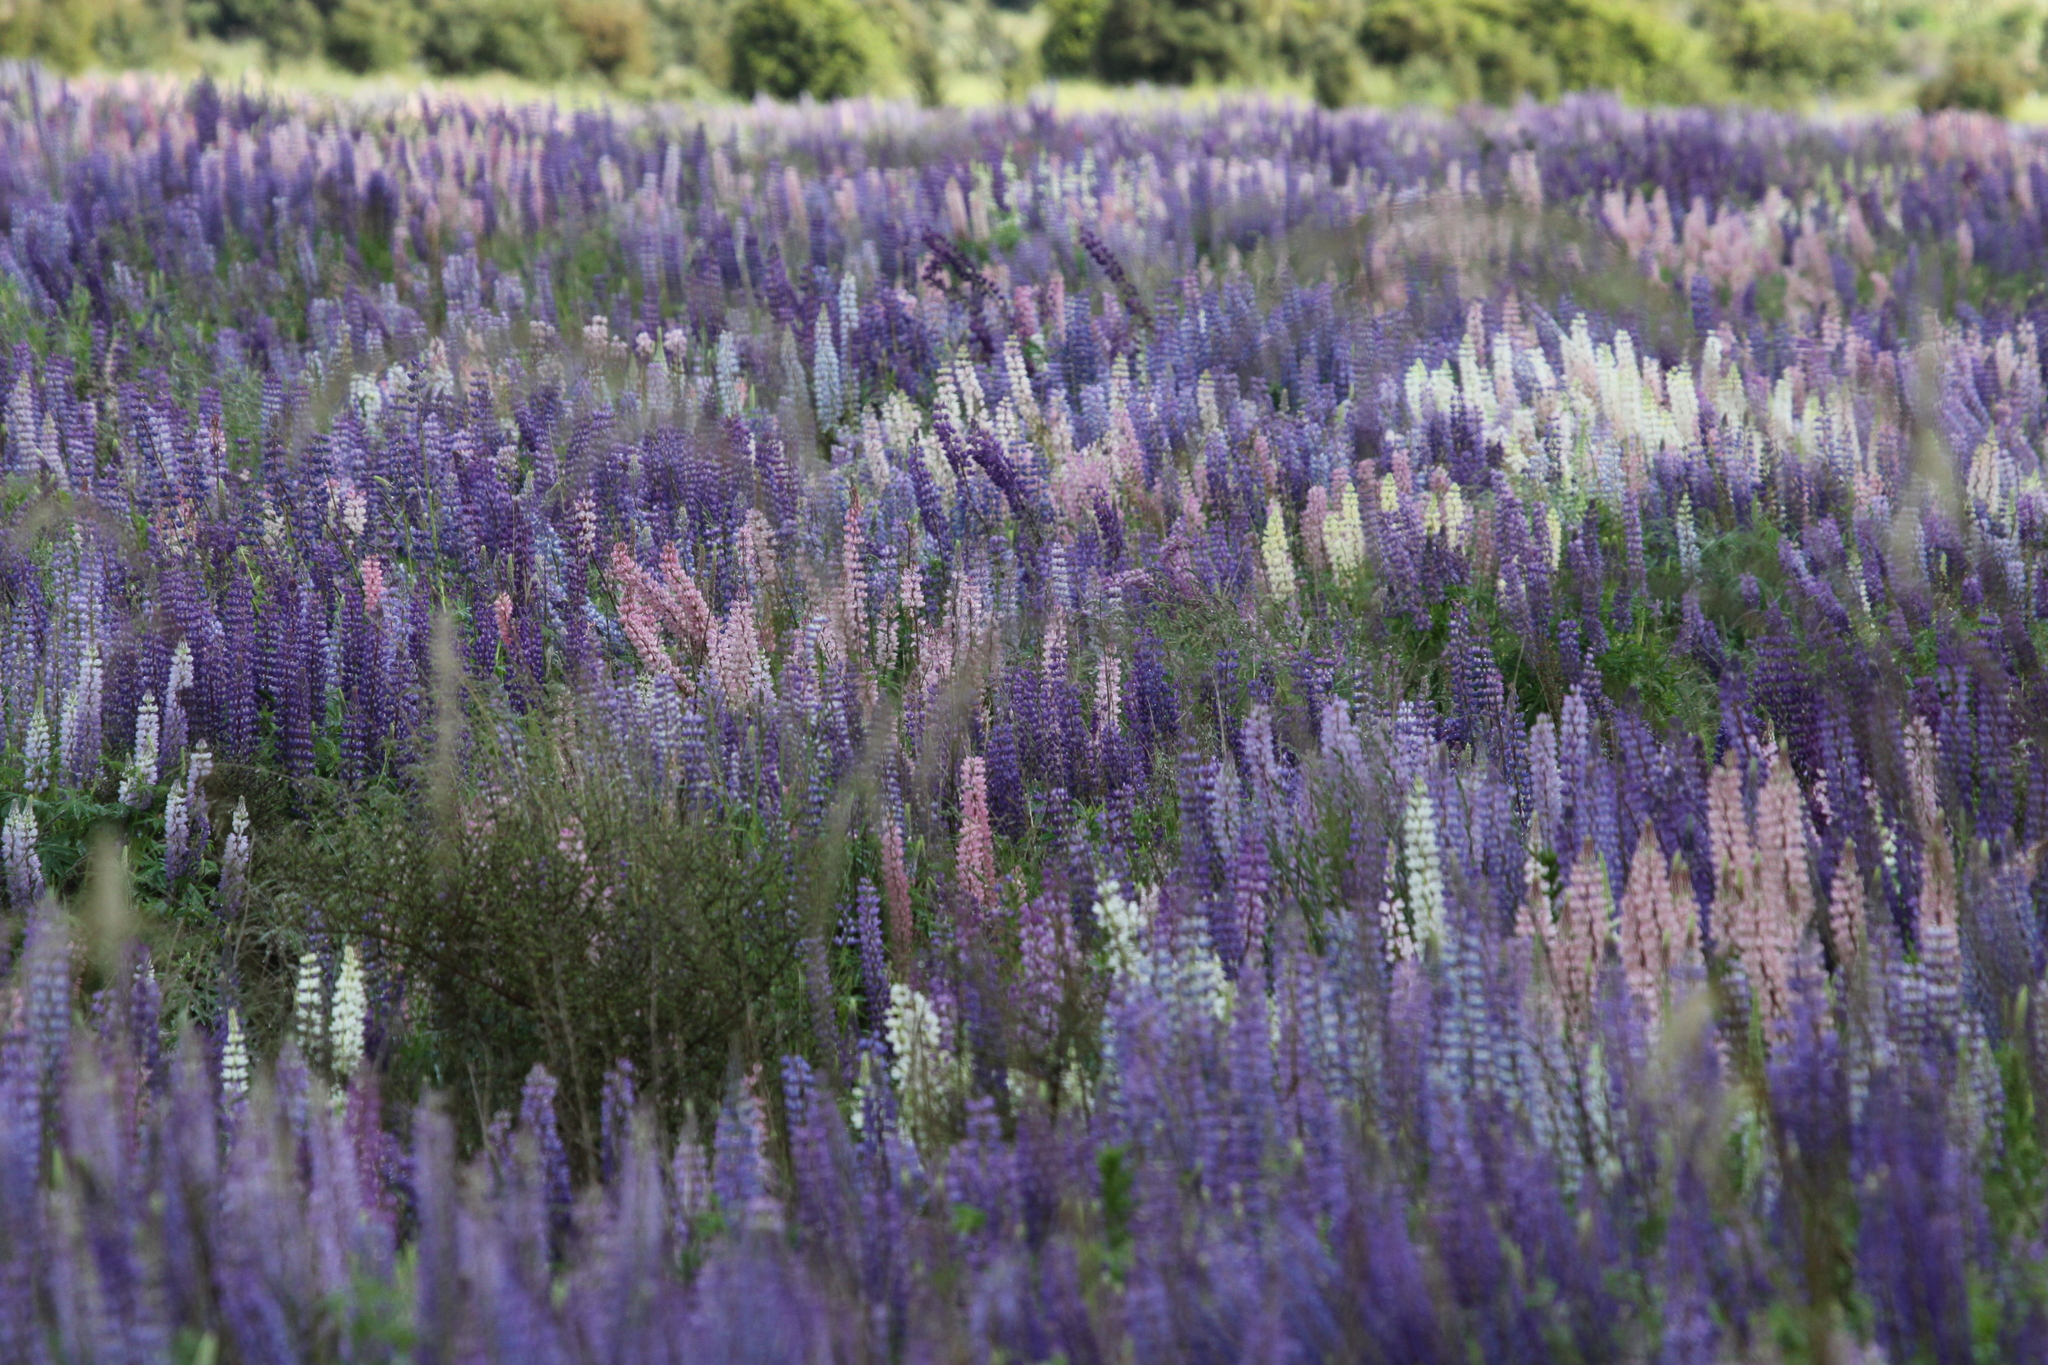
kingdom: Plantae
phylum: Tracheophyta
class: Magnoliopsida
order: Fabales
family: Fabaceae
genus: Lupinus
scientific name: Lupinus polyphyllus
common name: Garden lupin
